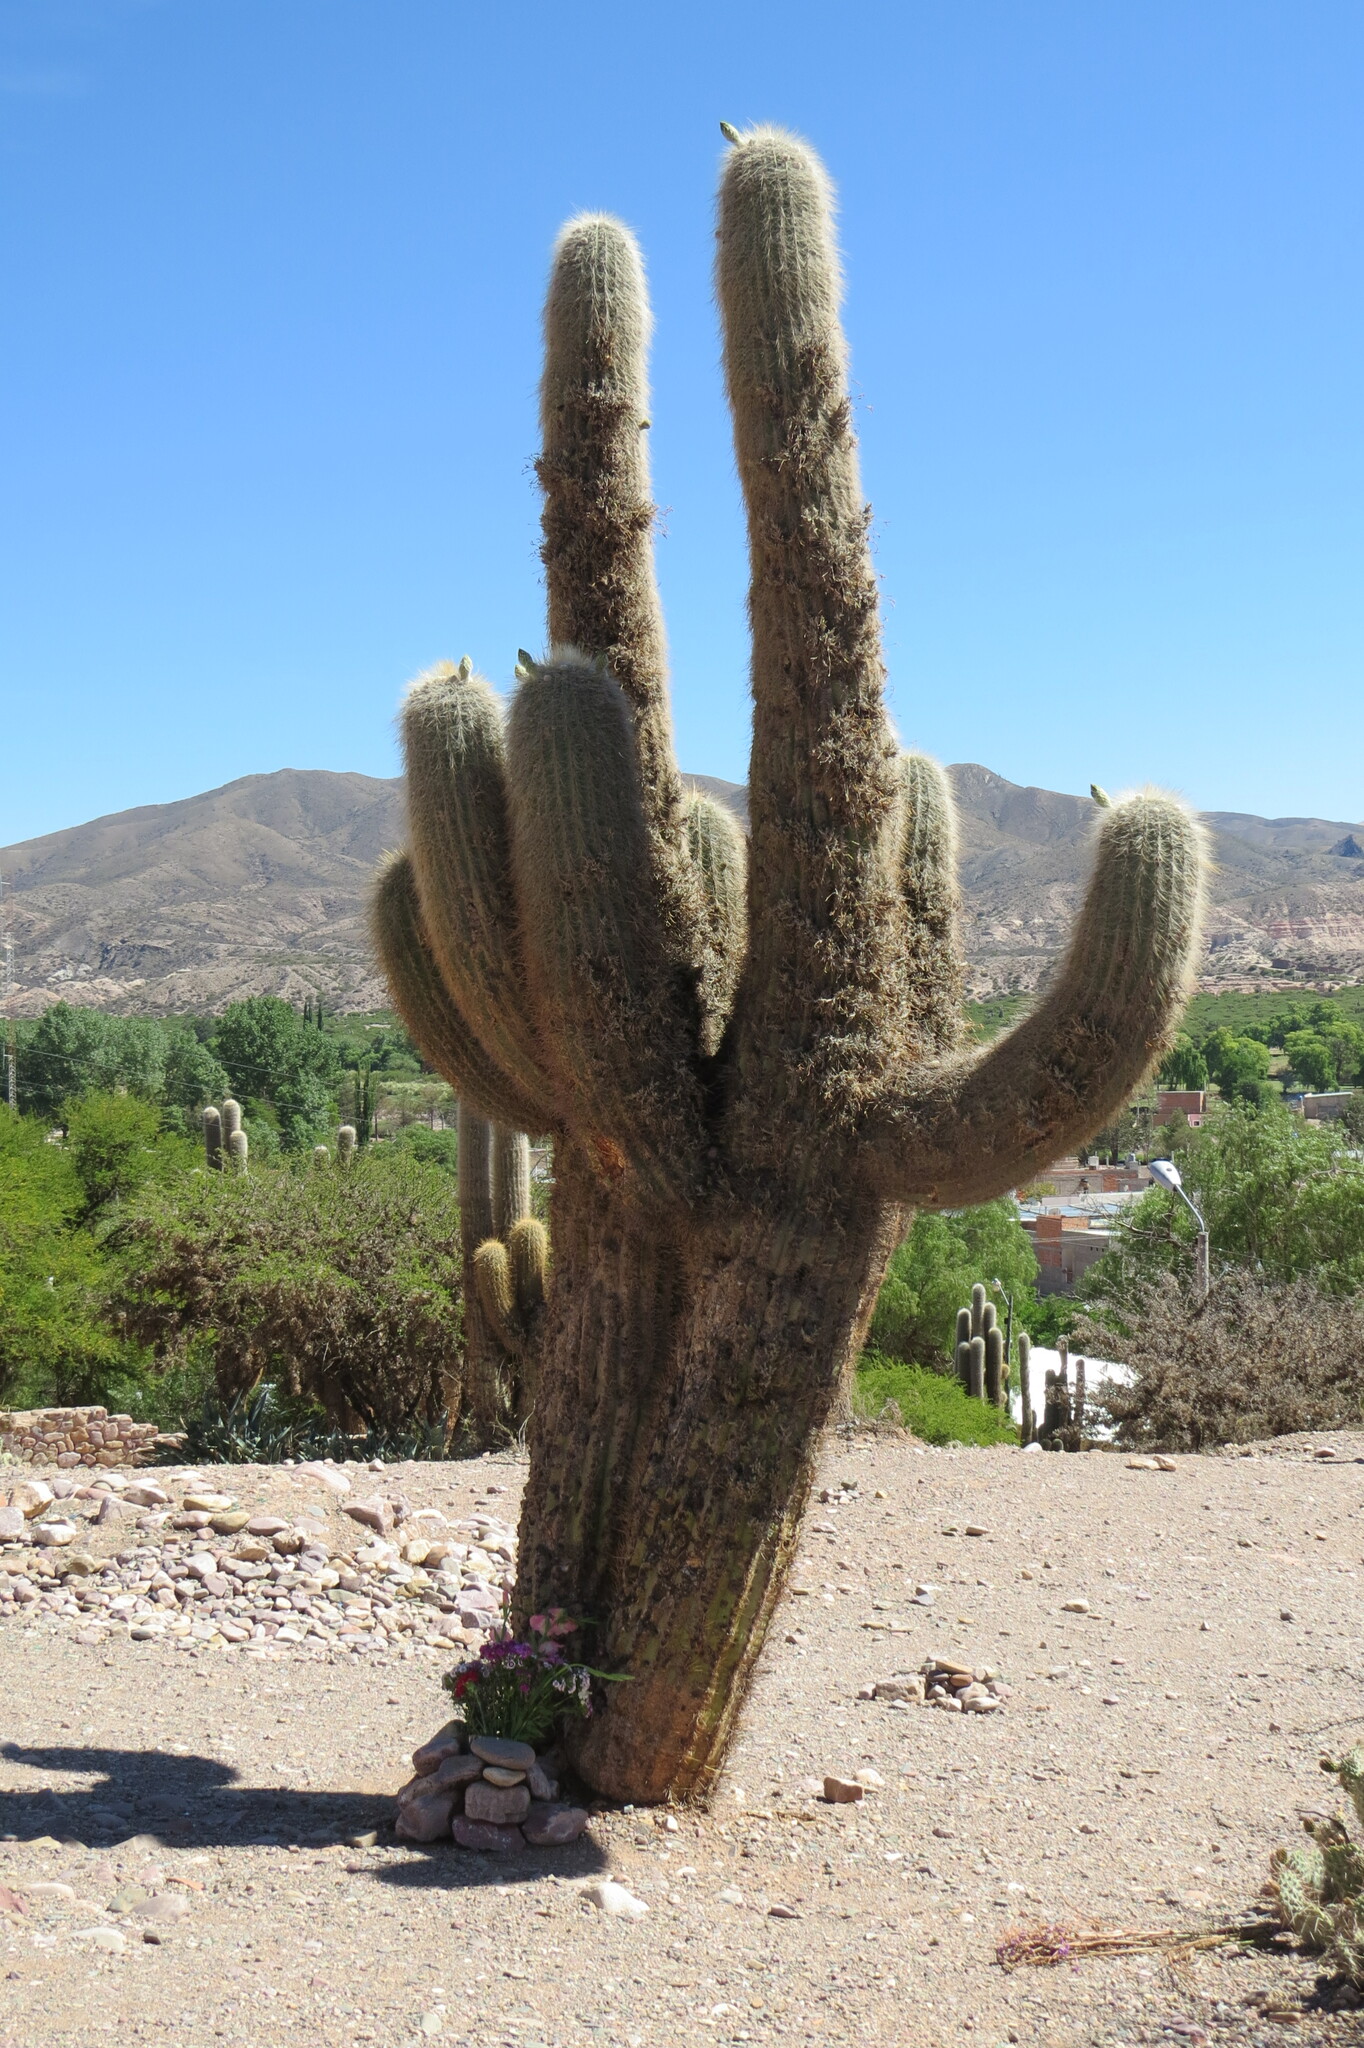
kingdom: Plantae
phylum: Tracheophyta
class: Magnoliopsida
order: Caryophyllales
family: Cactaceae
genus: Leucostele
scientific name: Leucostele atacamensis
